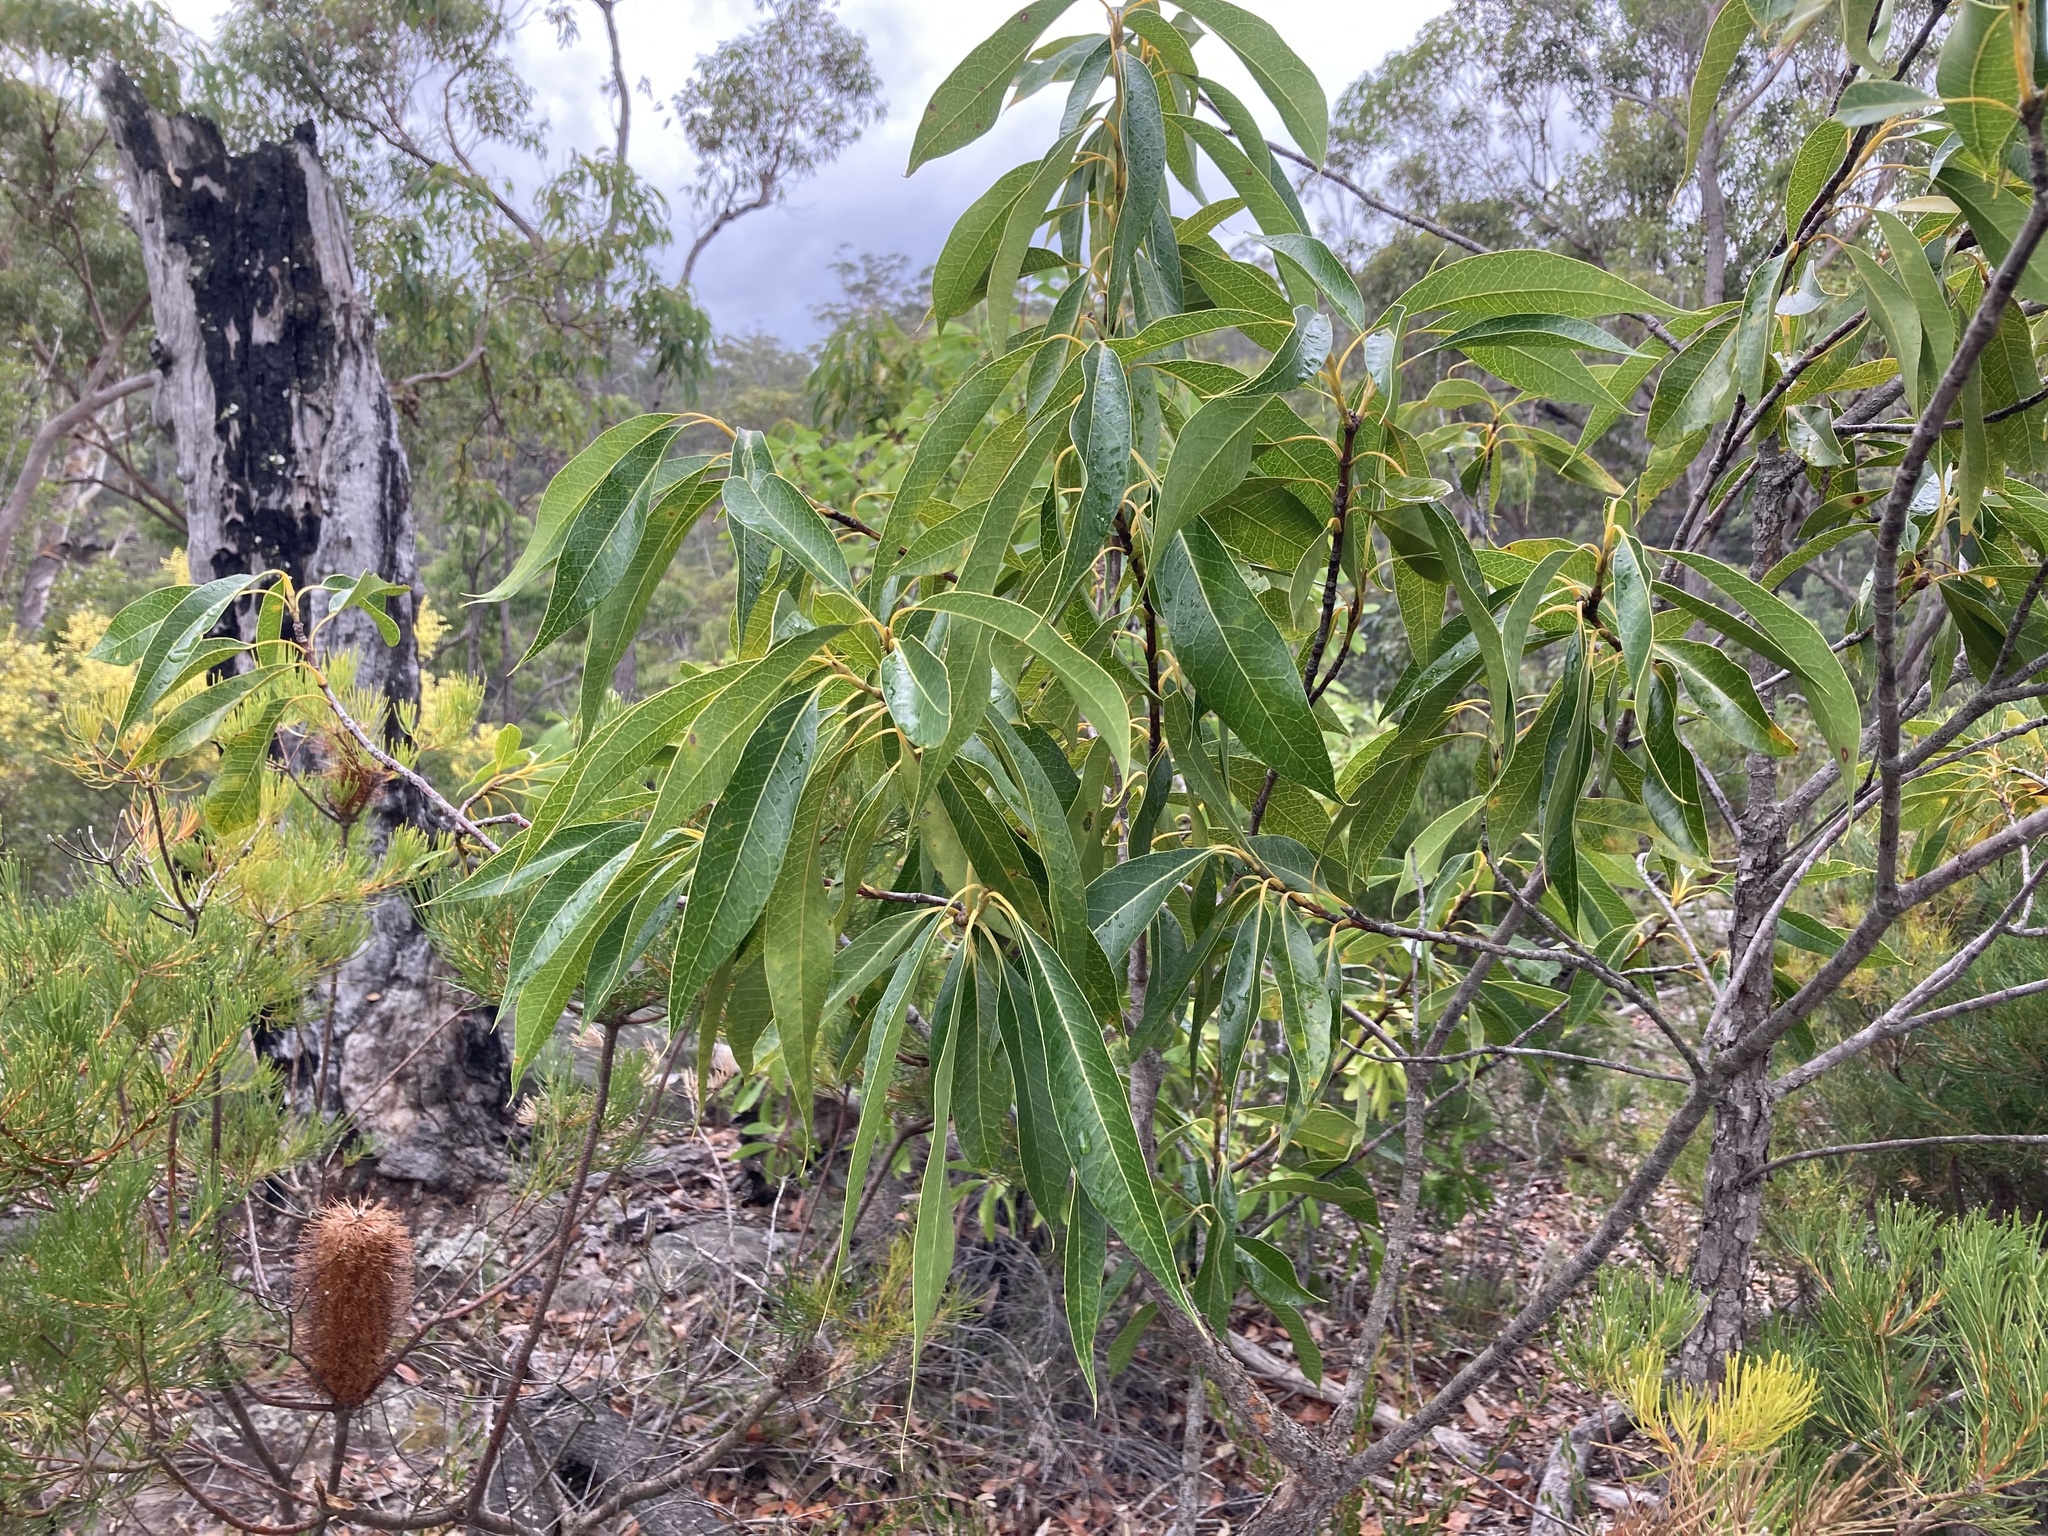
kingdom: Plantae
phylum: Tracheophyta
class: Magnoliopsida
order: Proteales
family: Proteaceae
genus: Xylomelum
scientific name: Xylomelum pyriforme
